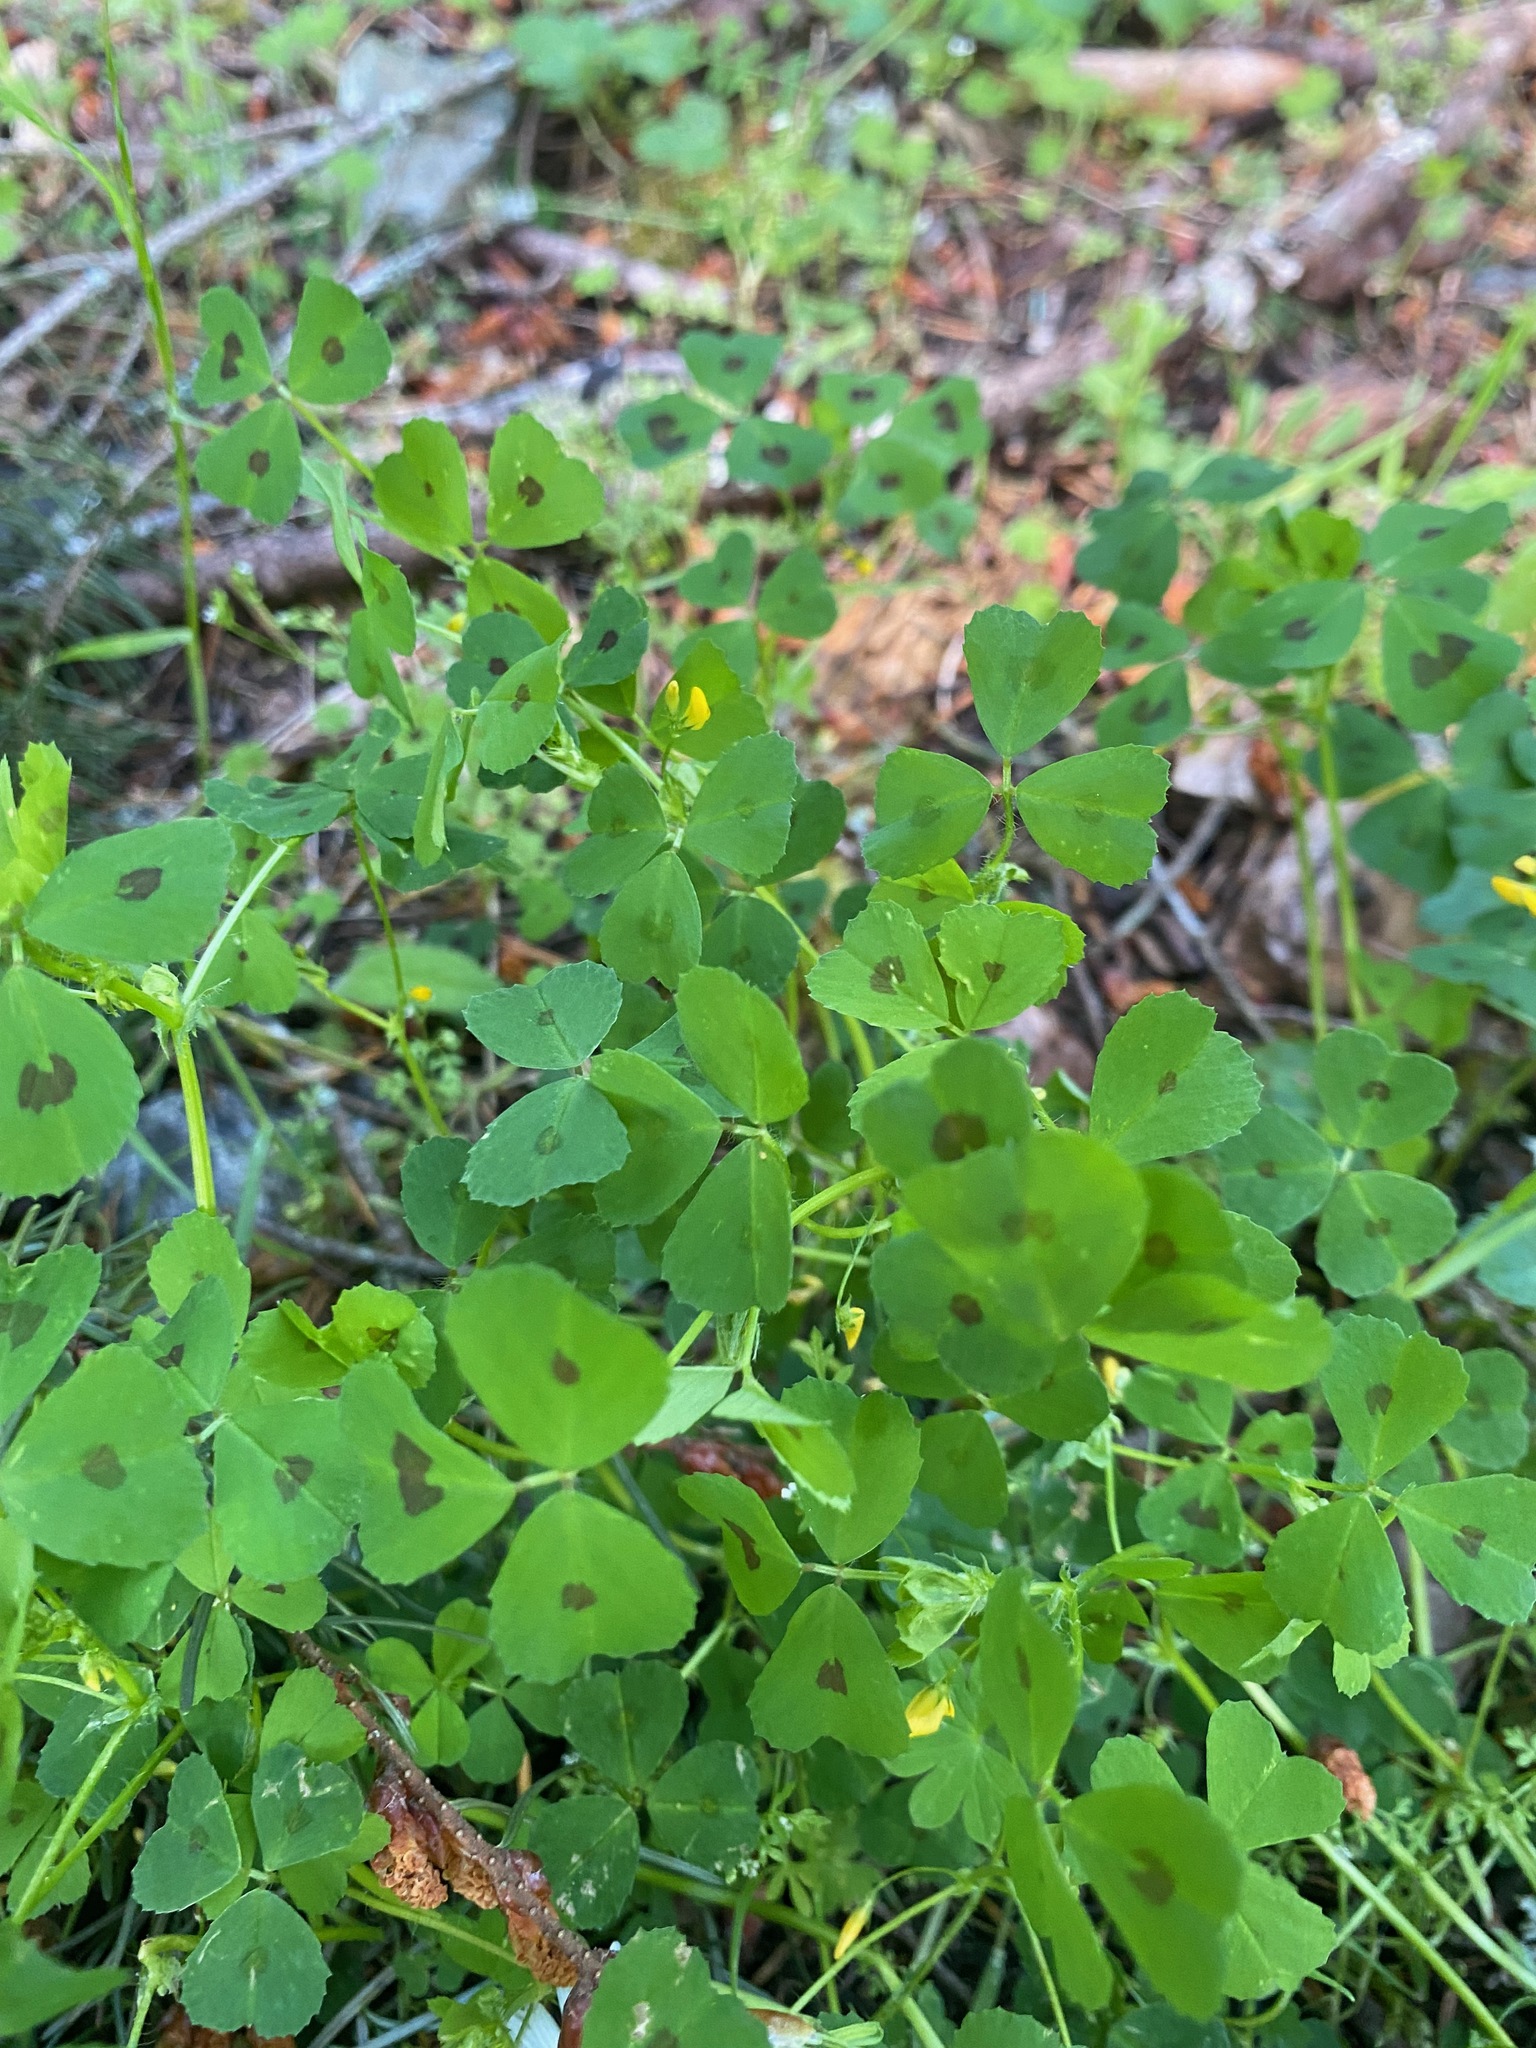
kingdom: Plantae
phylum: Tracheophyta
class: Magnoliopsida
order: Fabales
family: Fabaceae
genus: Medicago
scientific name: Medicago arabica
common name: Spotted medick
